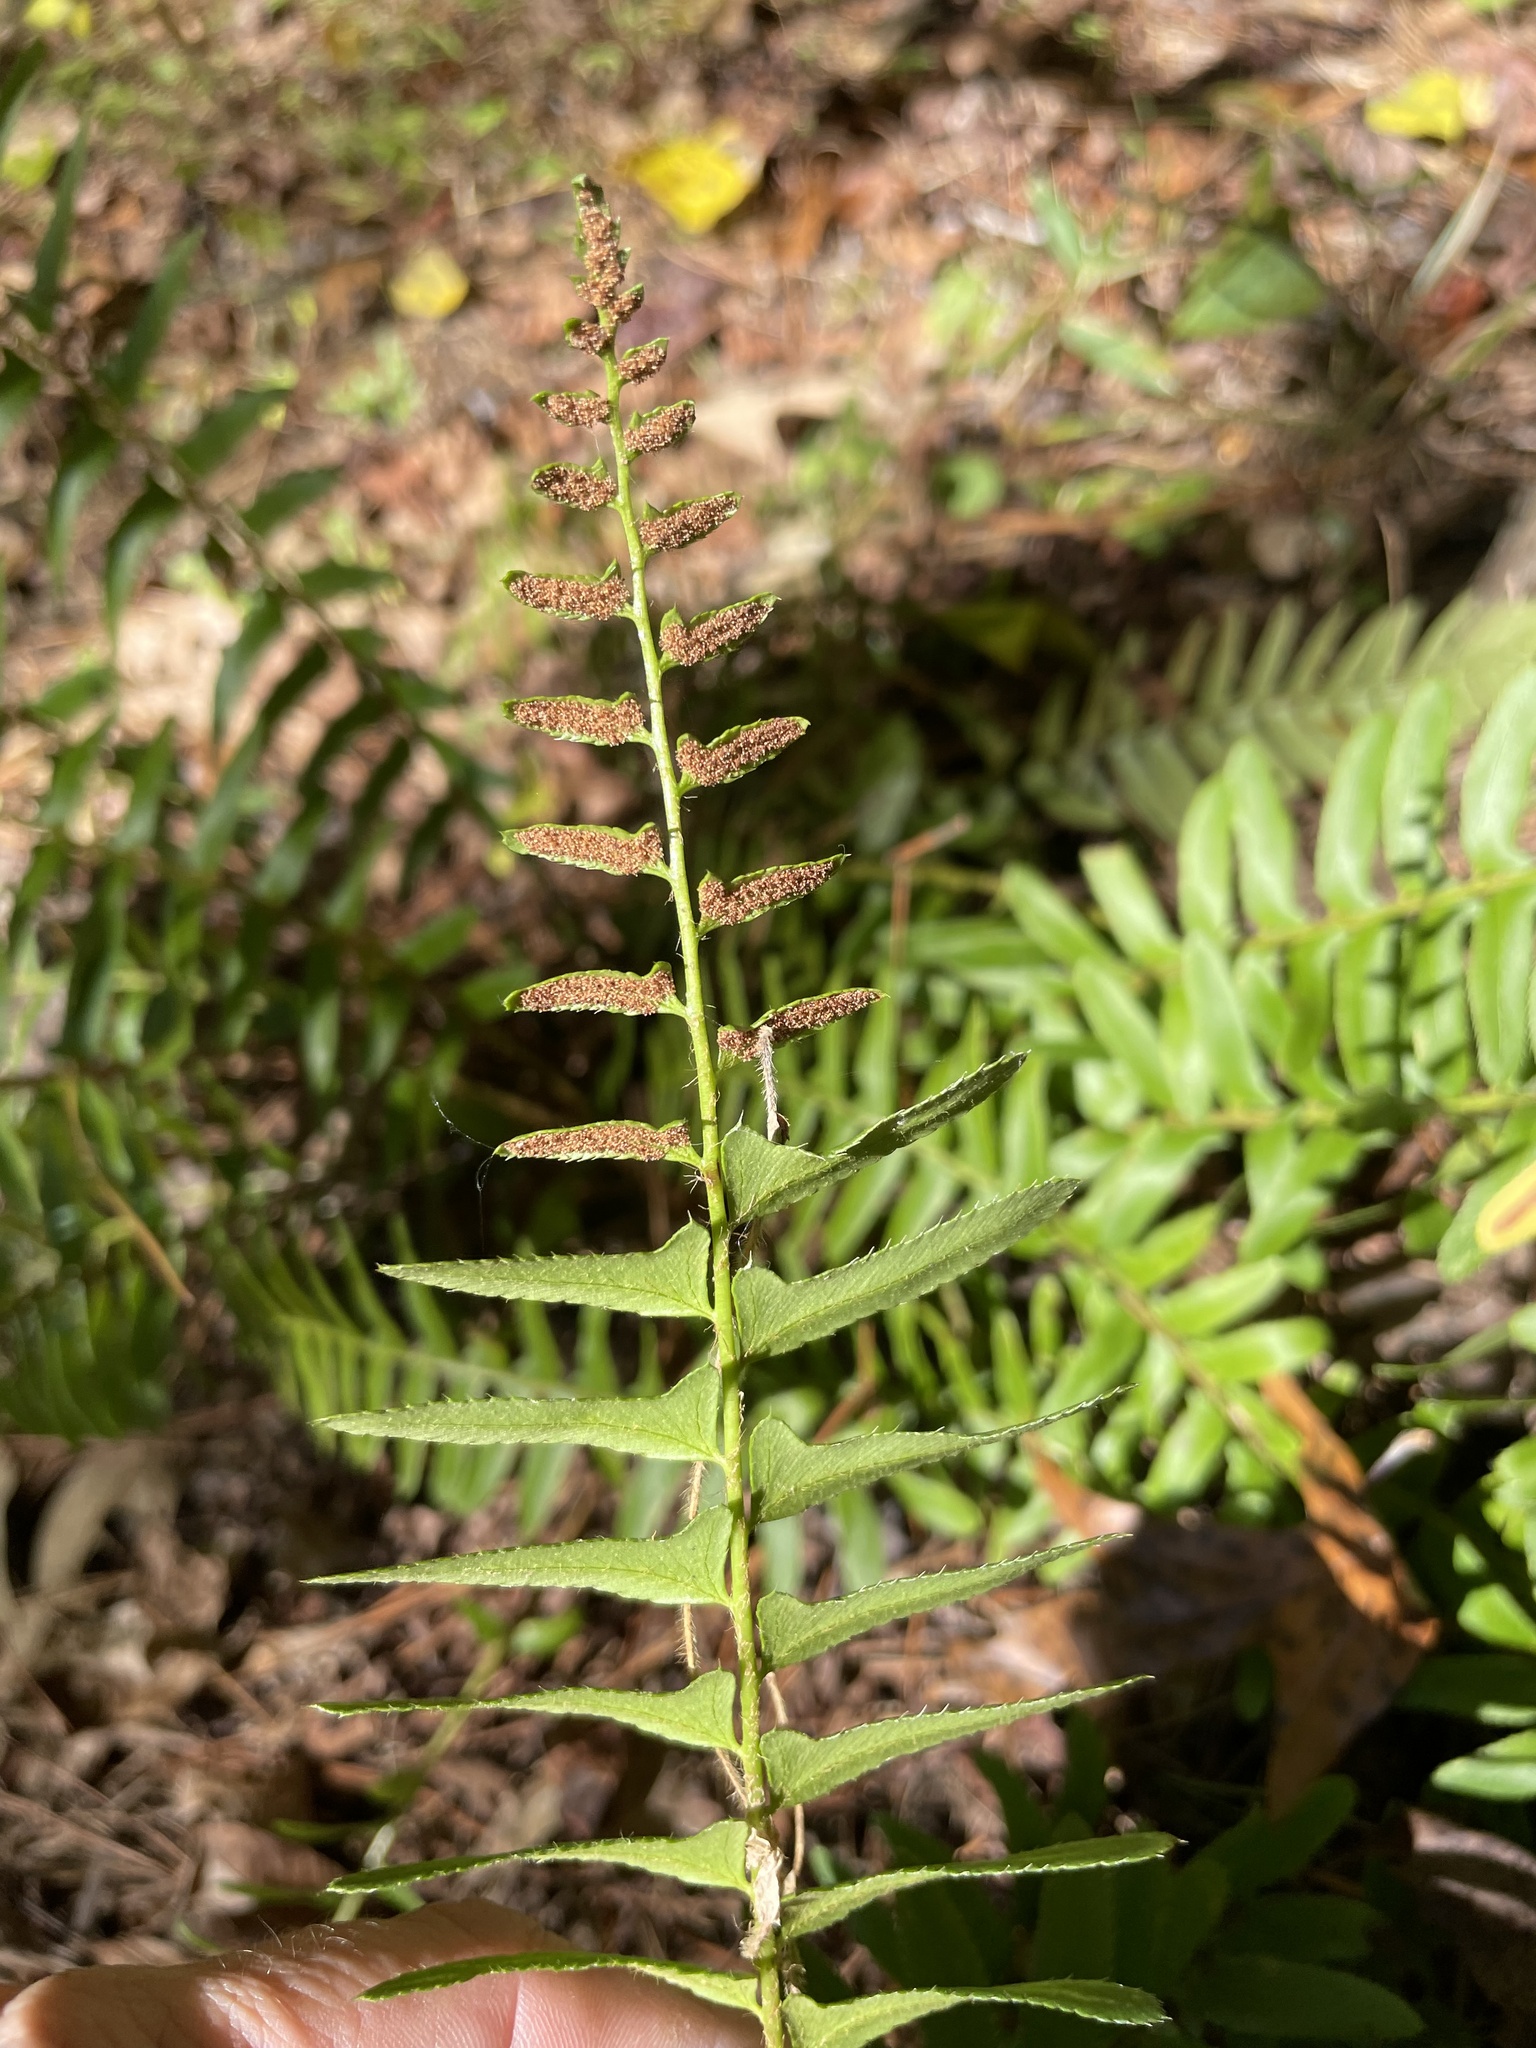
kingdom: Plantae
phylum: Tracheophyta
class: Polypodiopsida
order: Polypodiales
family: Dryopteridaceae
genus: Polystichum
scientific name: Polystichum acrostichoides
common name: Christmas fern
